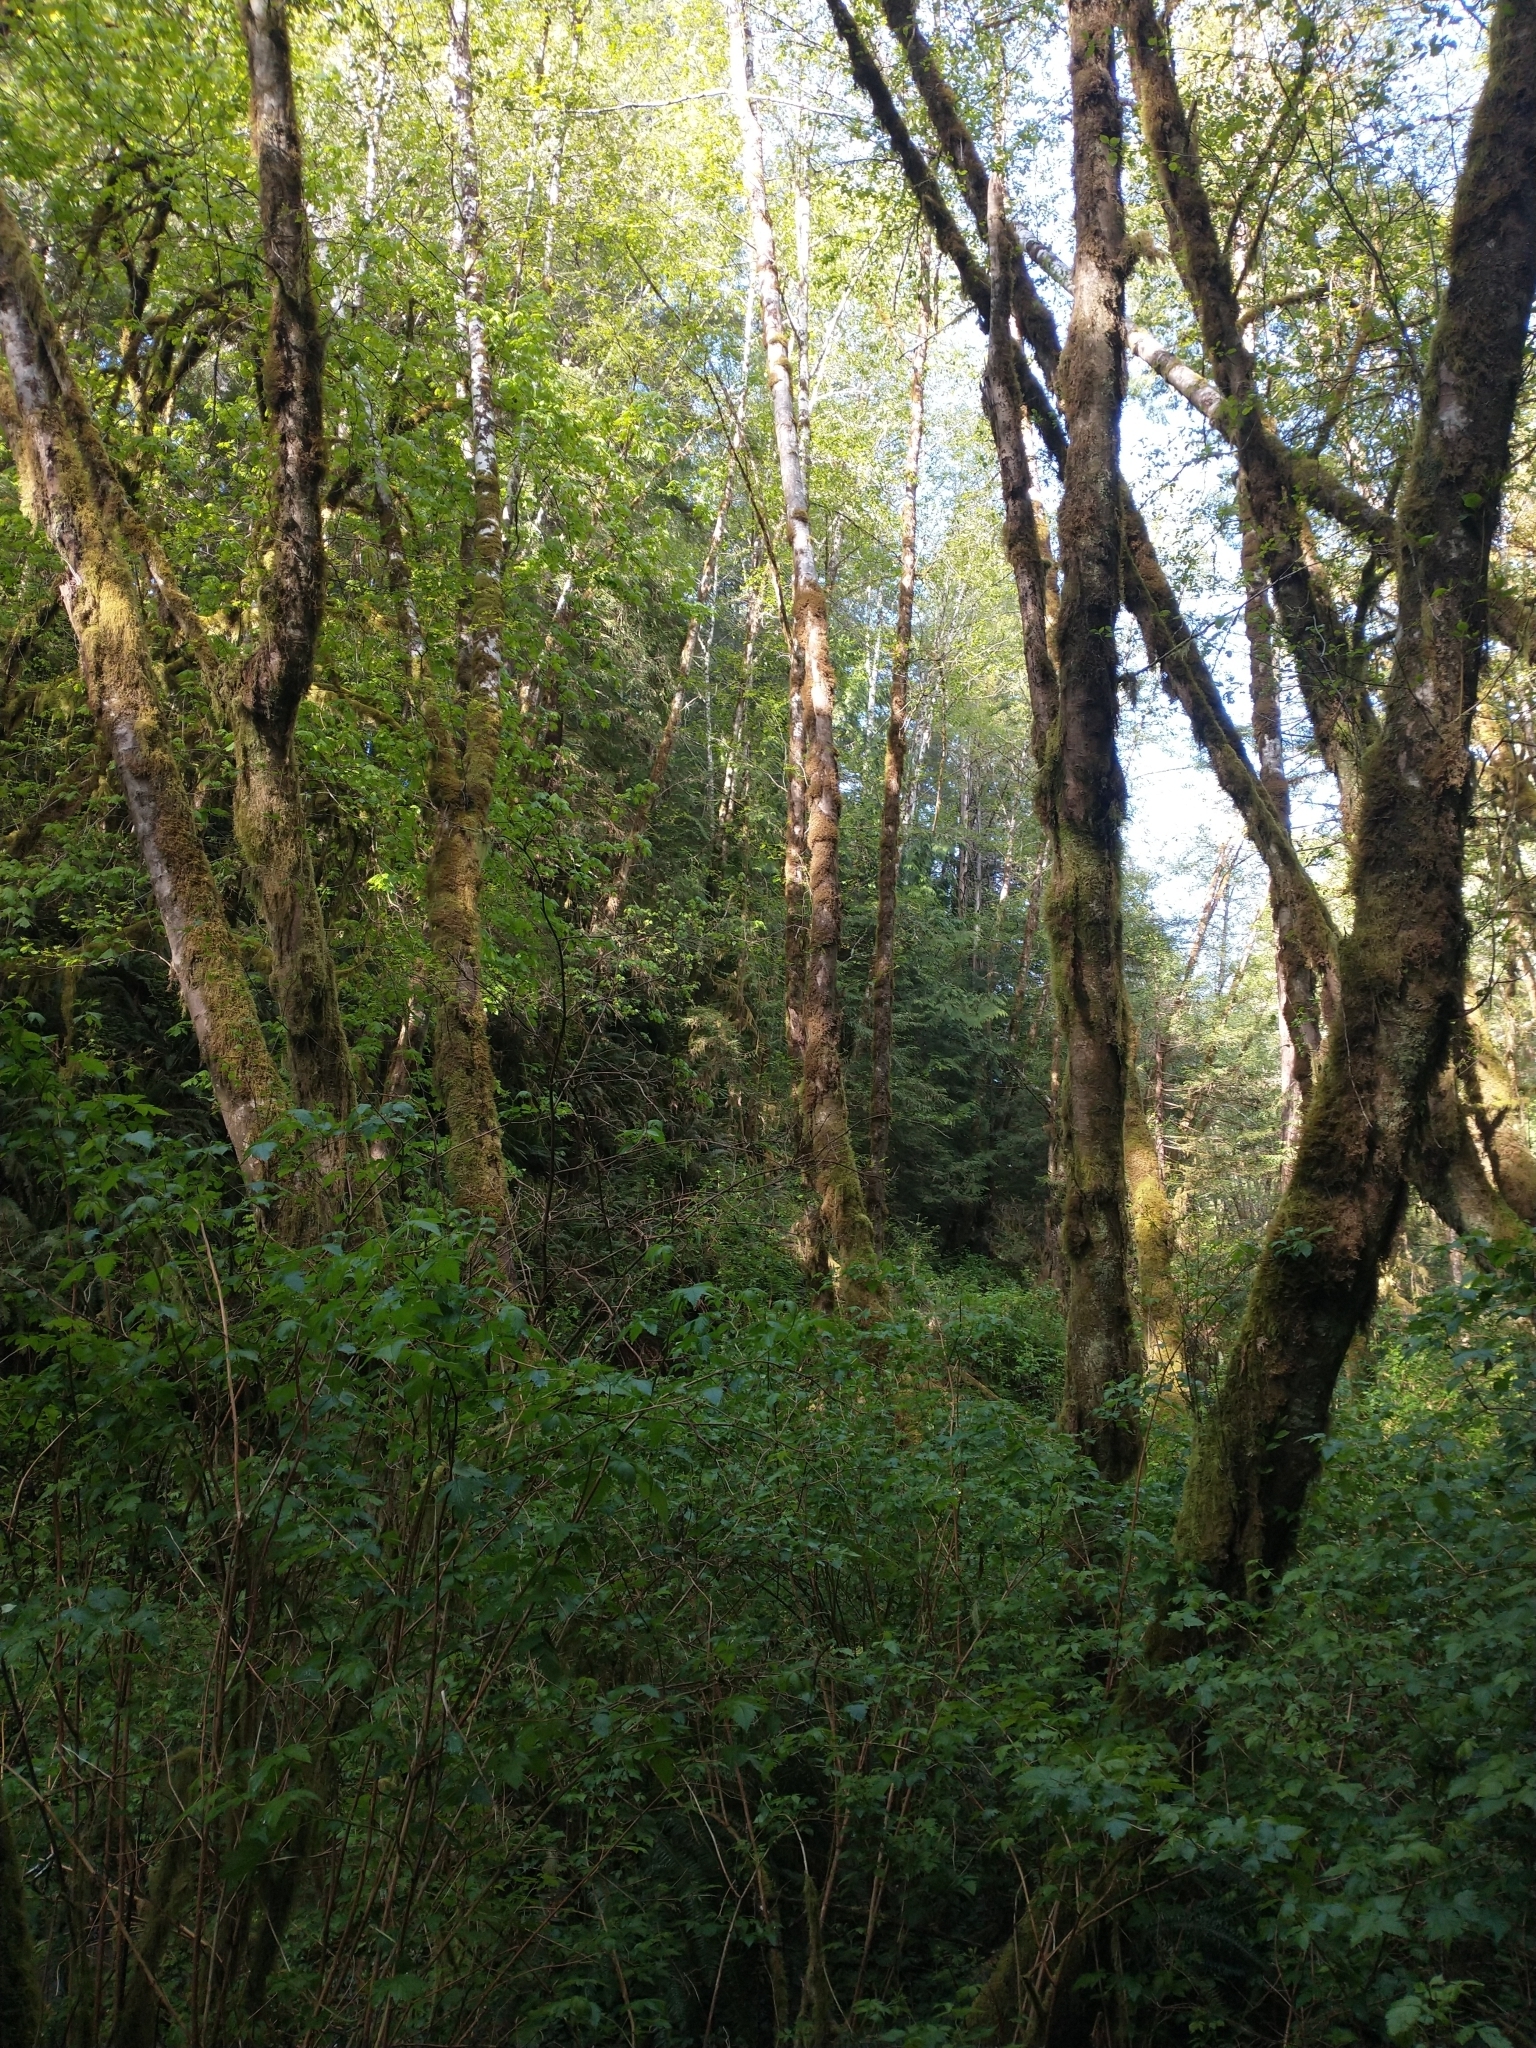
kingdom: Plantae
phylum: Tracheophyta
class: Magnoliopsida
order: Rosales
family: Rosaceae
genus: Rubus
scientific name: Rubus spectabilis
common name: Salmonberry
